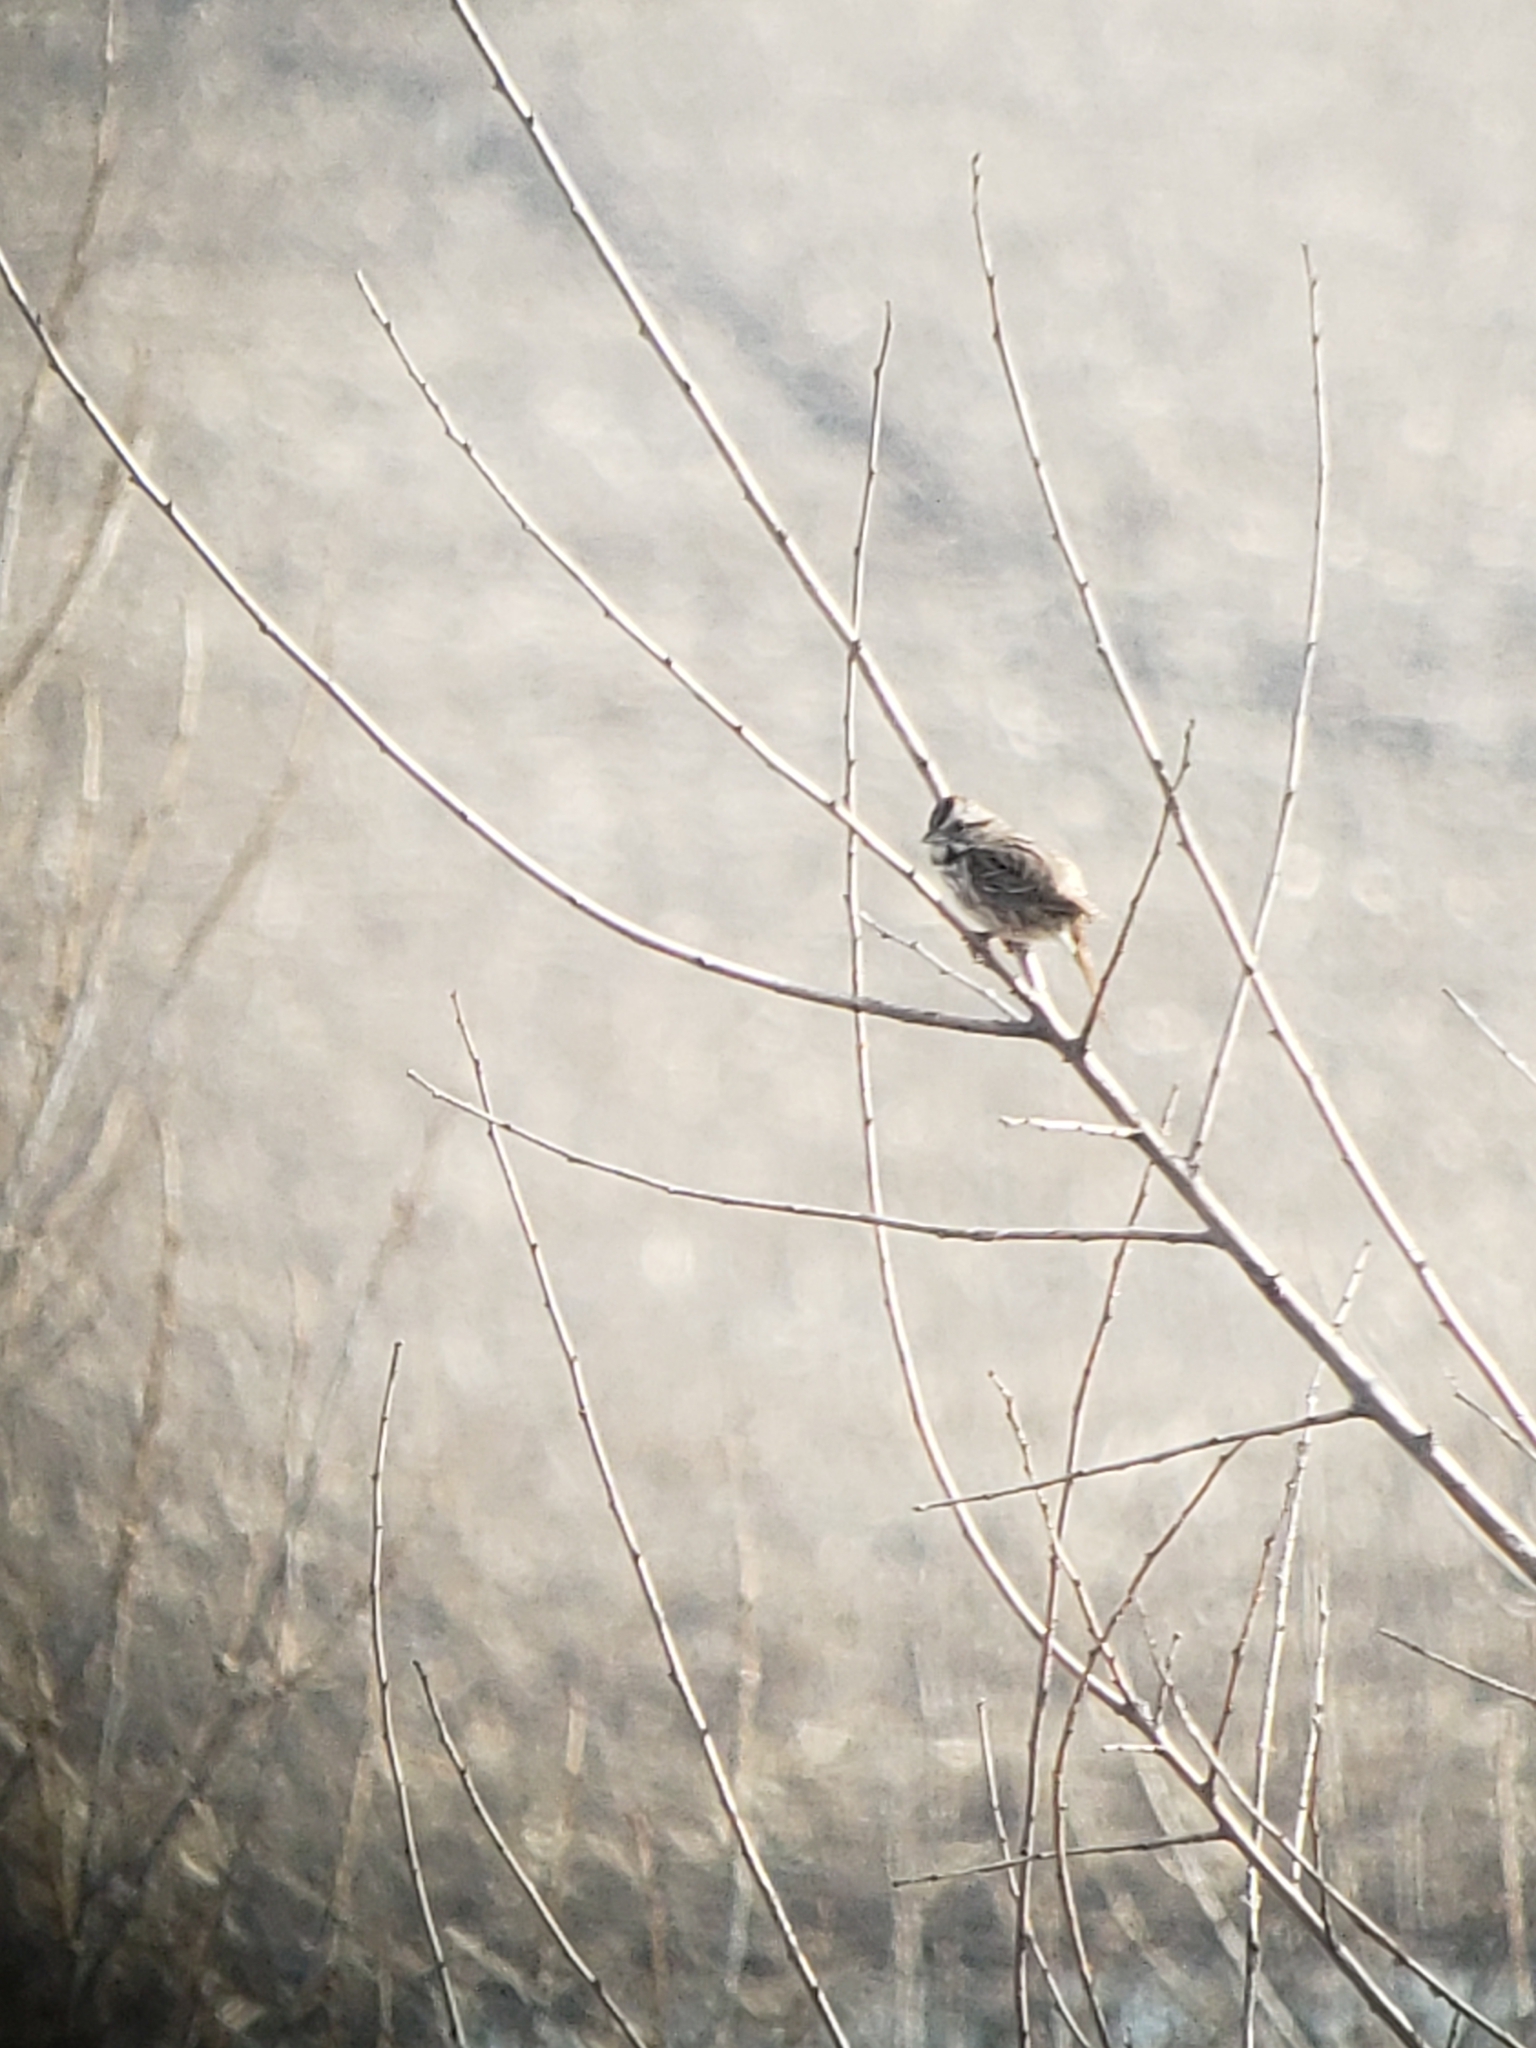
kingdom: Animalia
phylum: Chordata
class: Aves
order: Passeriformes
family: Passerellidae
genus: Melospiza
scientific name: Melospiza melodia
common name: Song sparrow
